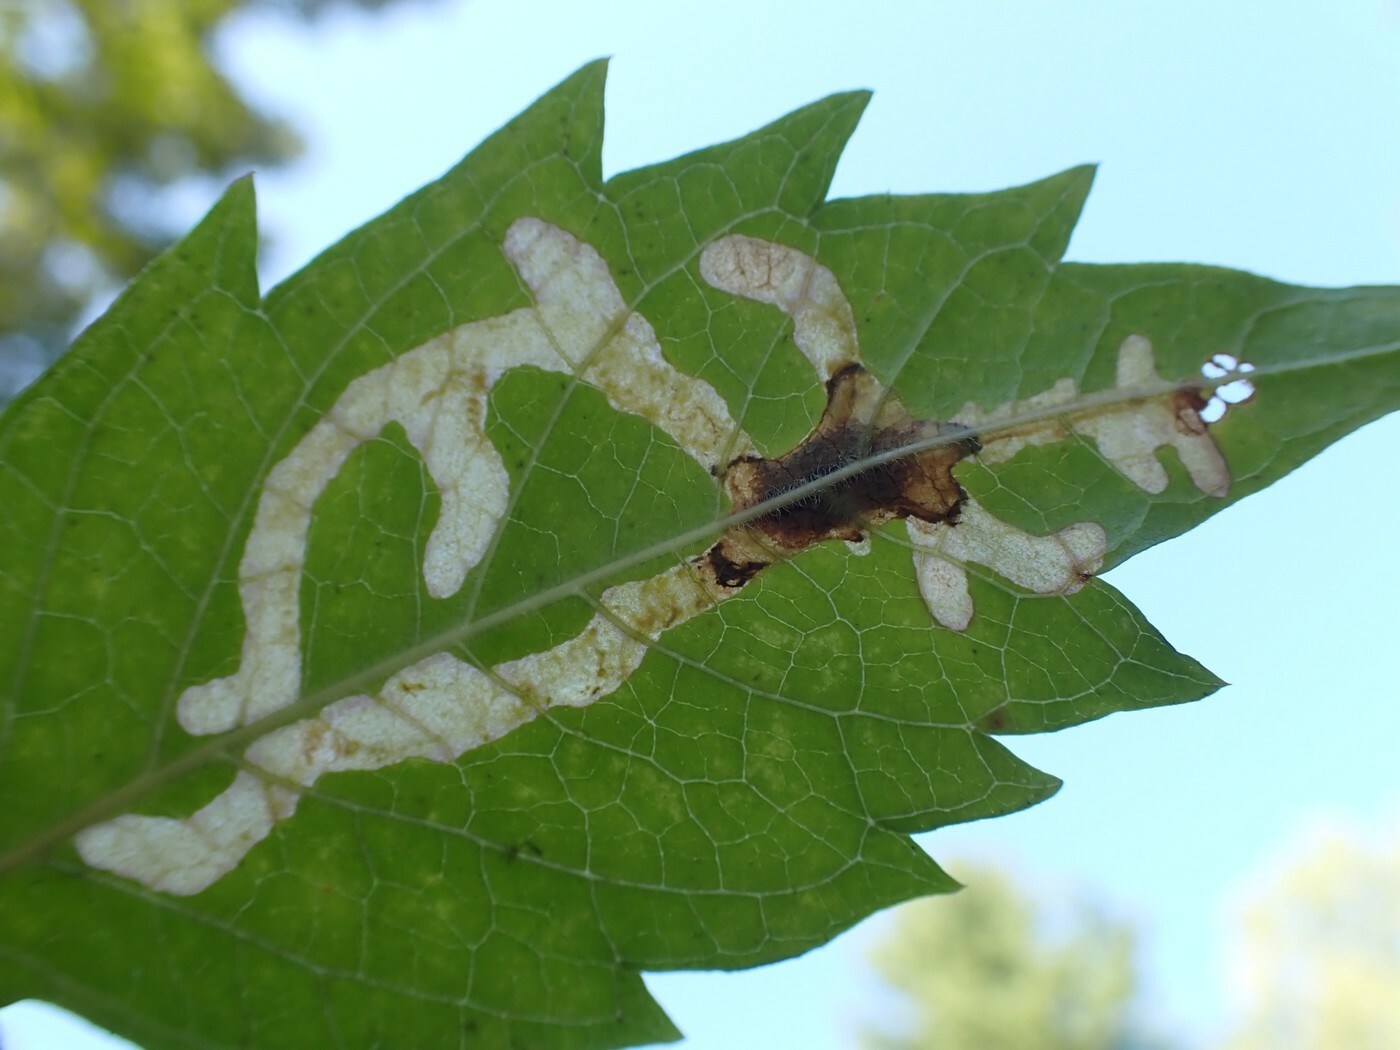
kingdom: Animalia
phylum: Arthropoda
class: Insecta
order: Coleoptera
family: Chrysomelidae
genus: Octotoma
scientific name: Octotoma plicatula
